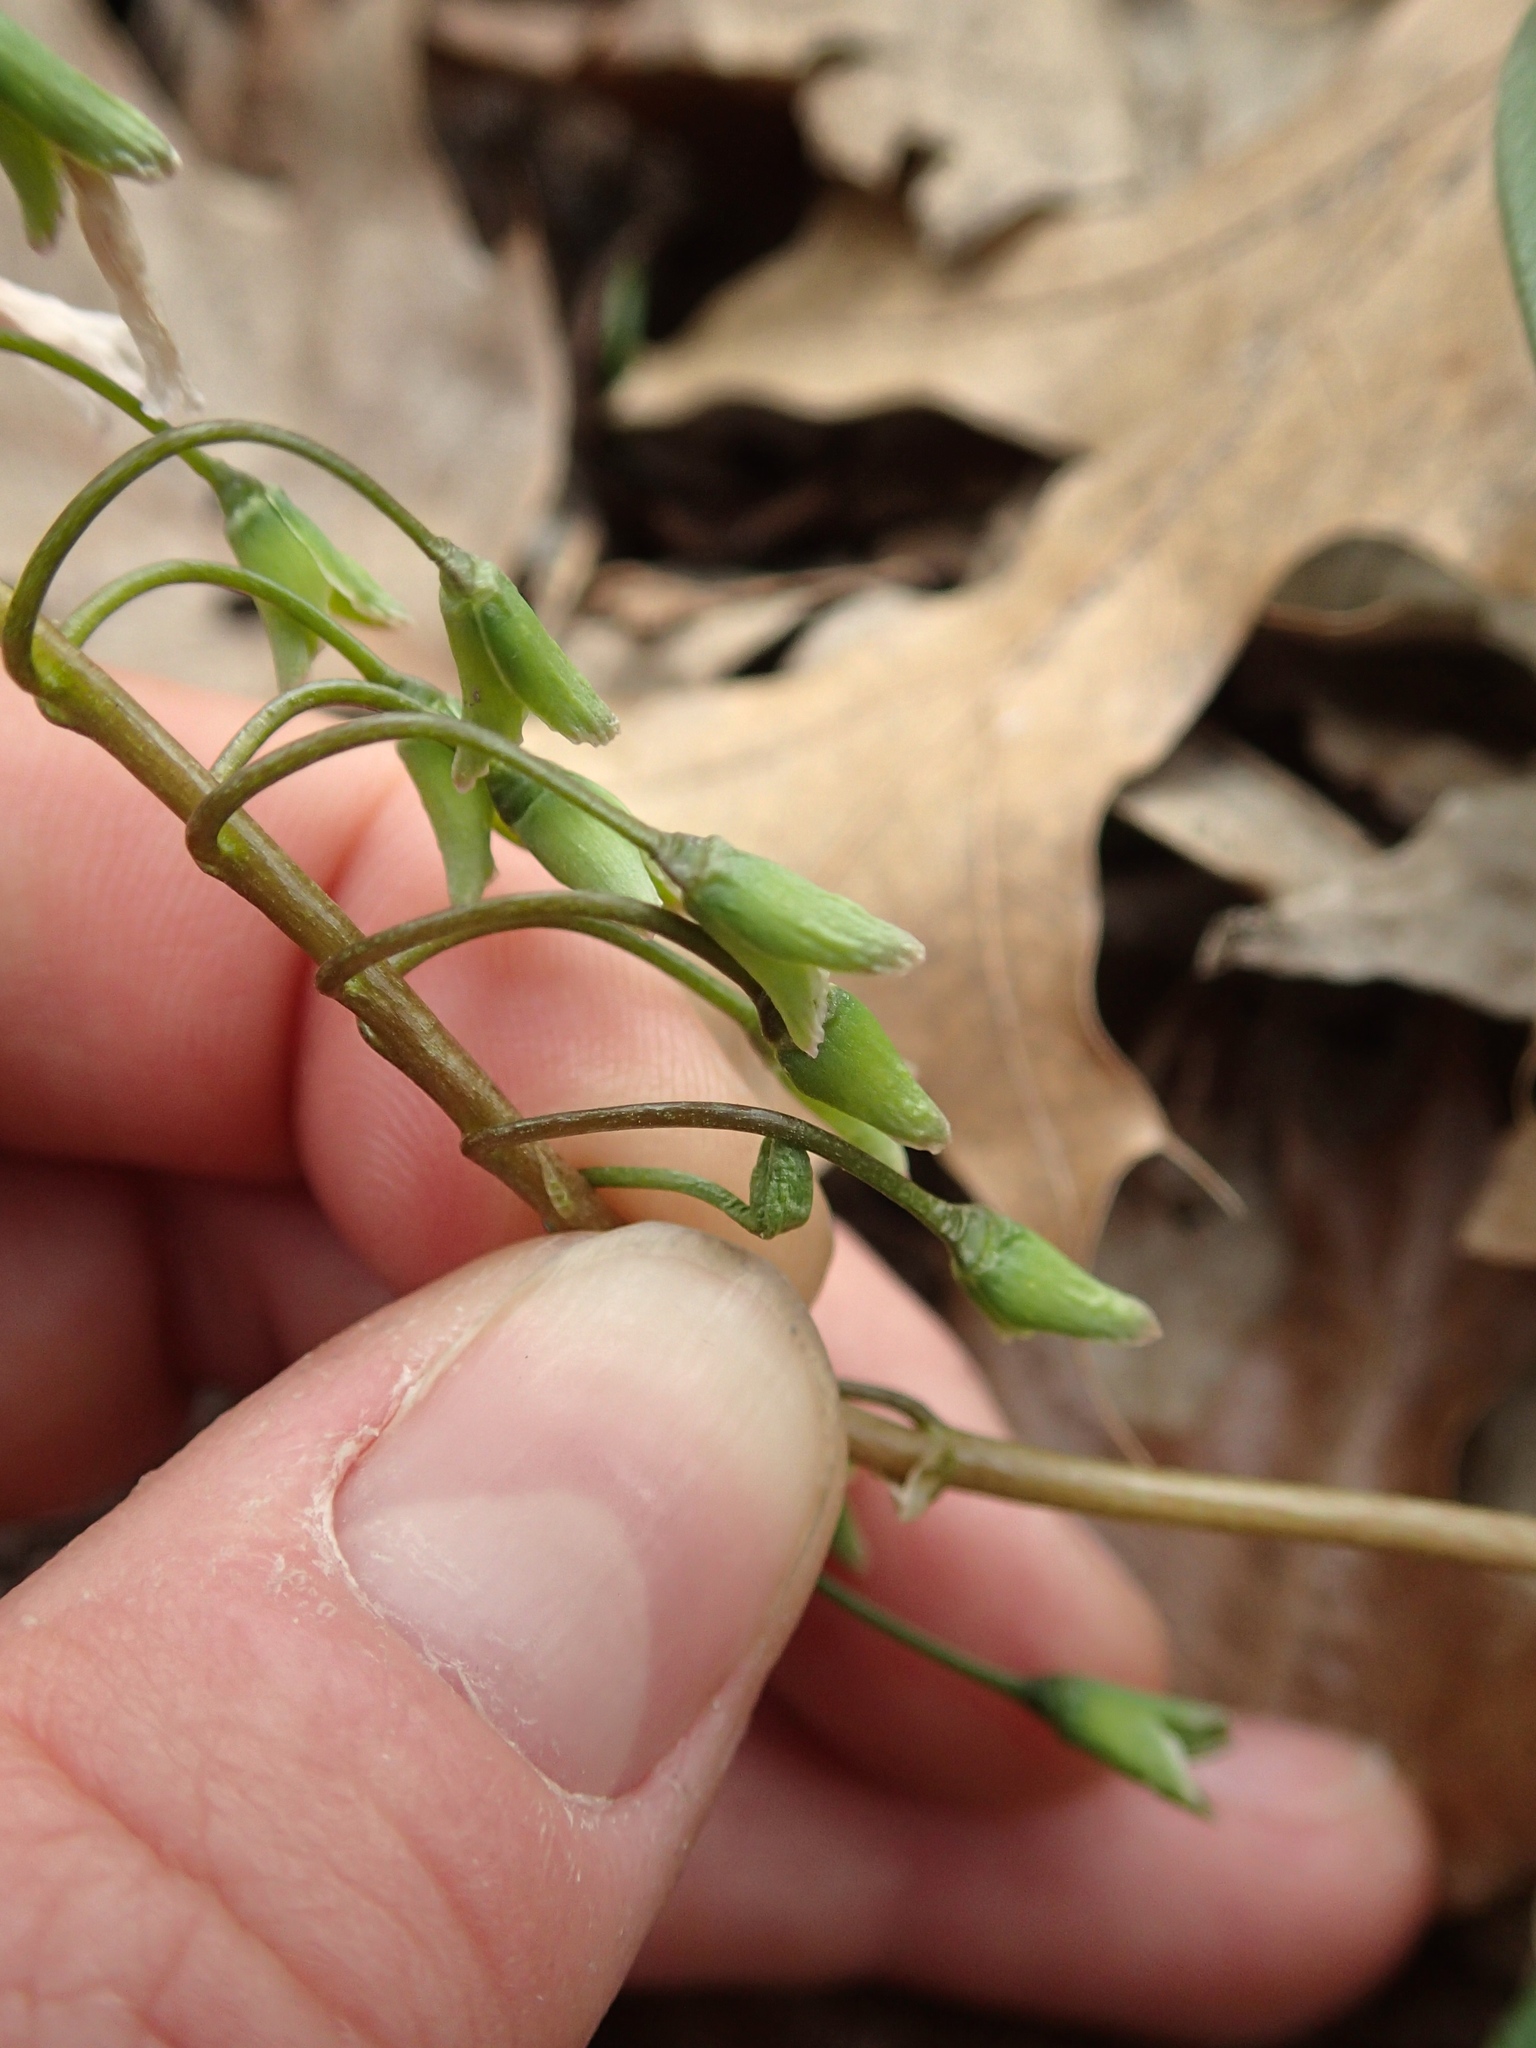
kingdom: Plantae
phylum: Tracheophyta
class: Magnoliopsida
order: Caryophyllales
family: Montiaceae
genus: Claytonia
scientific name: Claytonia virginica
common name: Virginia springbeauty
